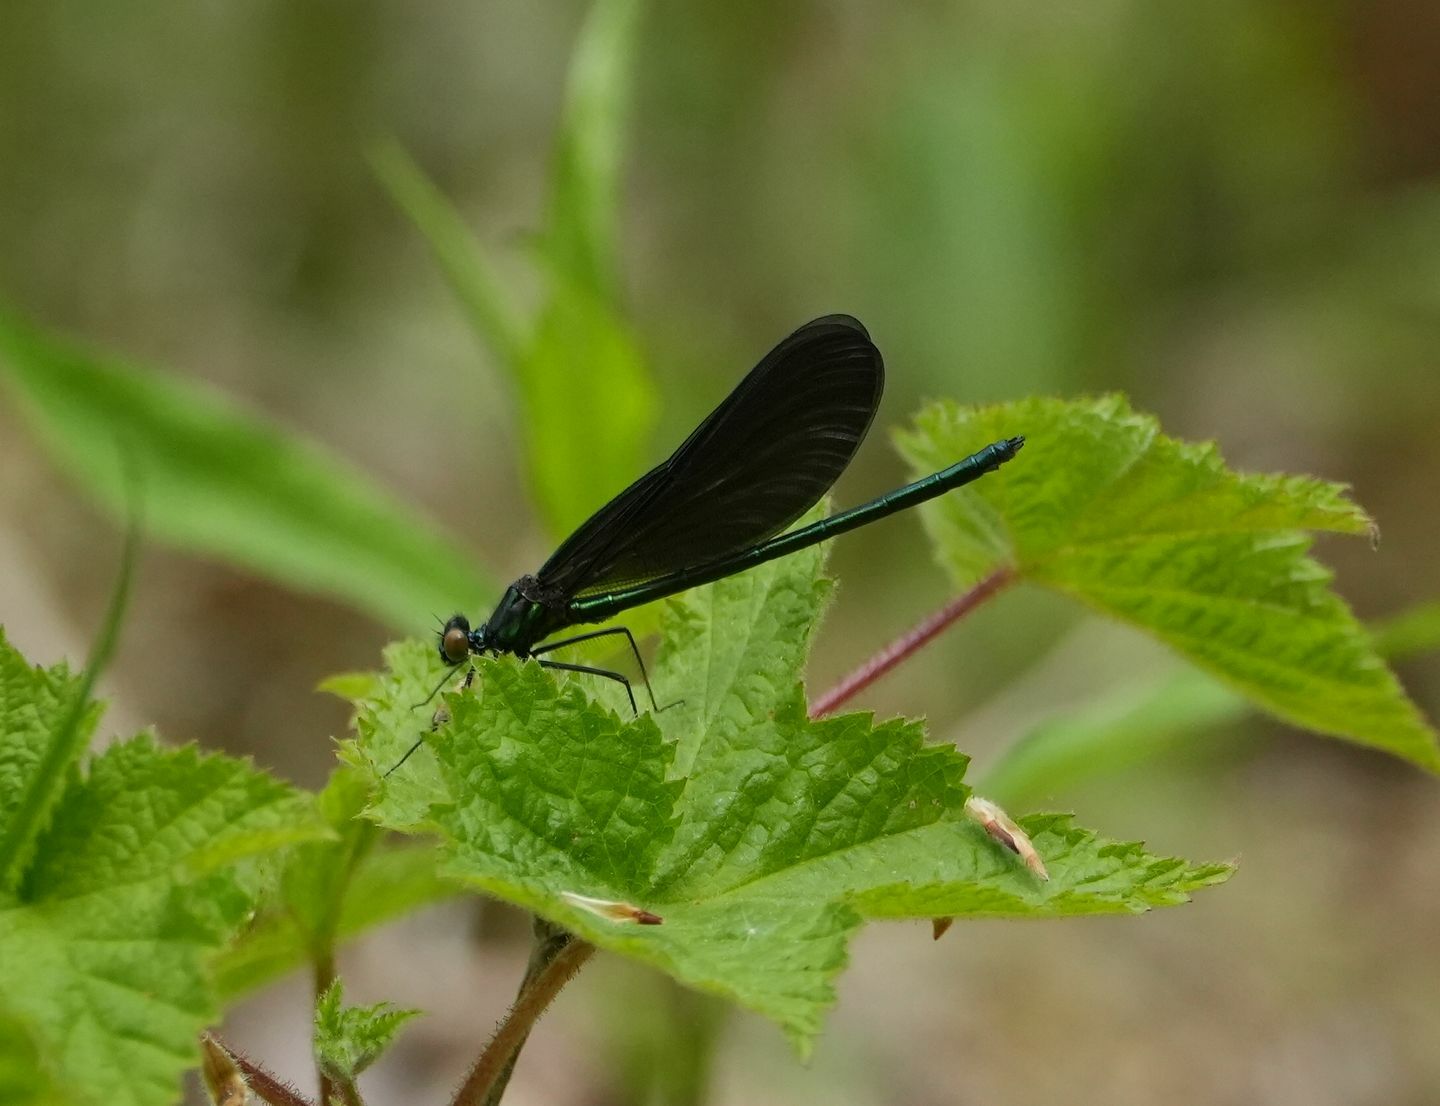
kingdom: Animalia
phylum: Arthropoda
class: Insecta
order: Odonata
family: Calopterygidae
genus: Calopteryx
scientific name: Calopteryx maculata
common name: Ebony jewelwing
